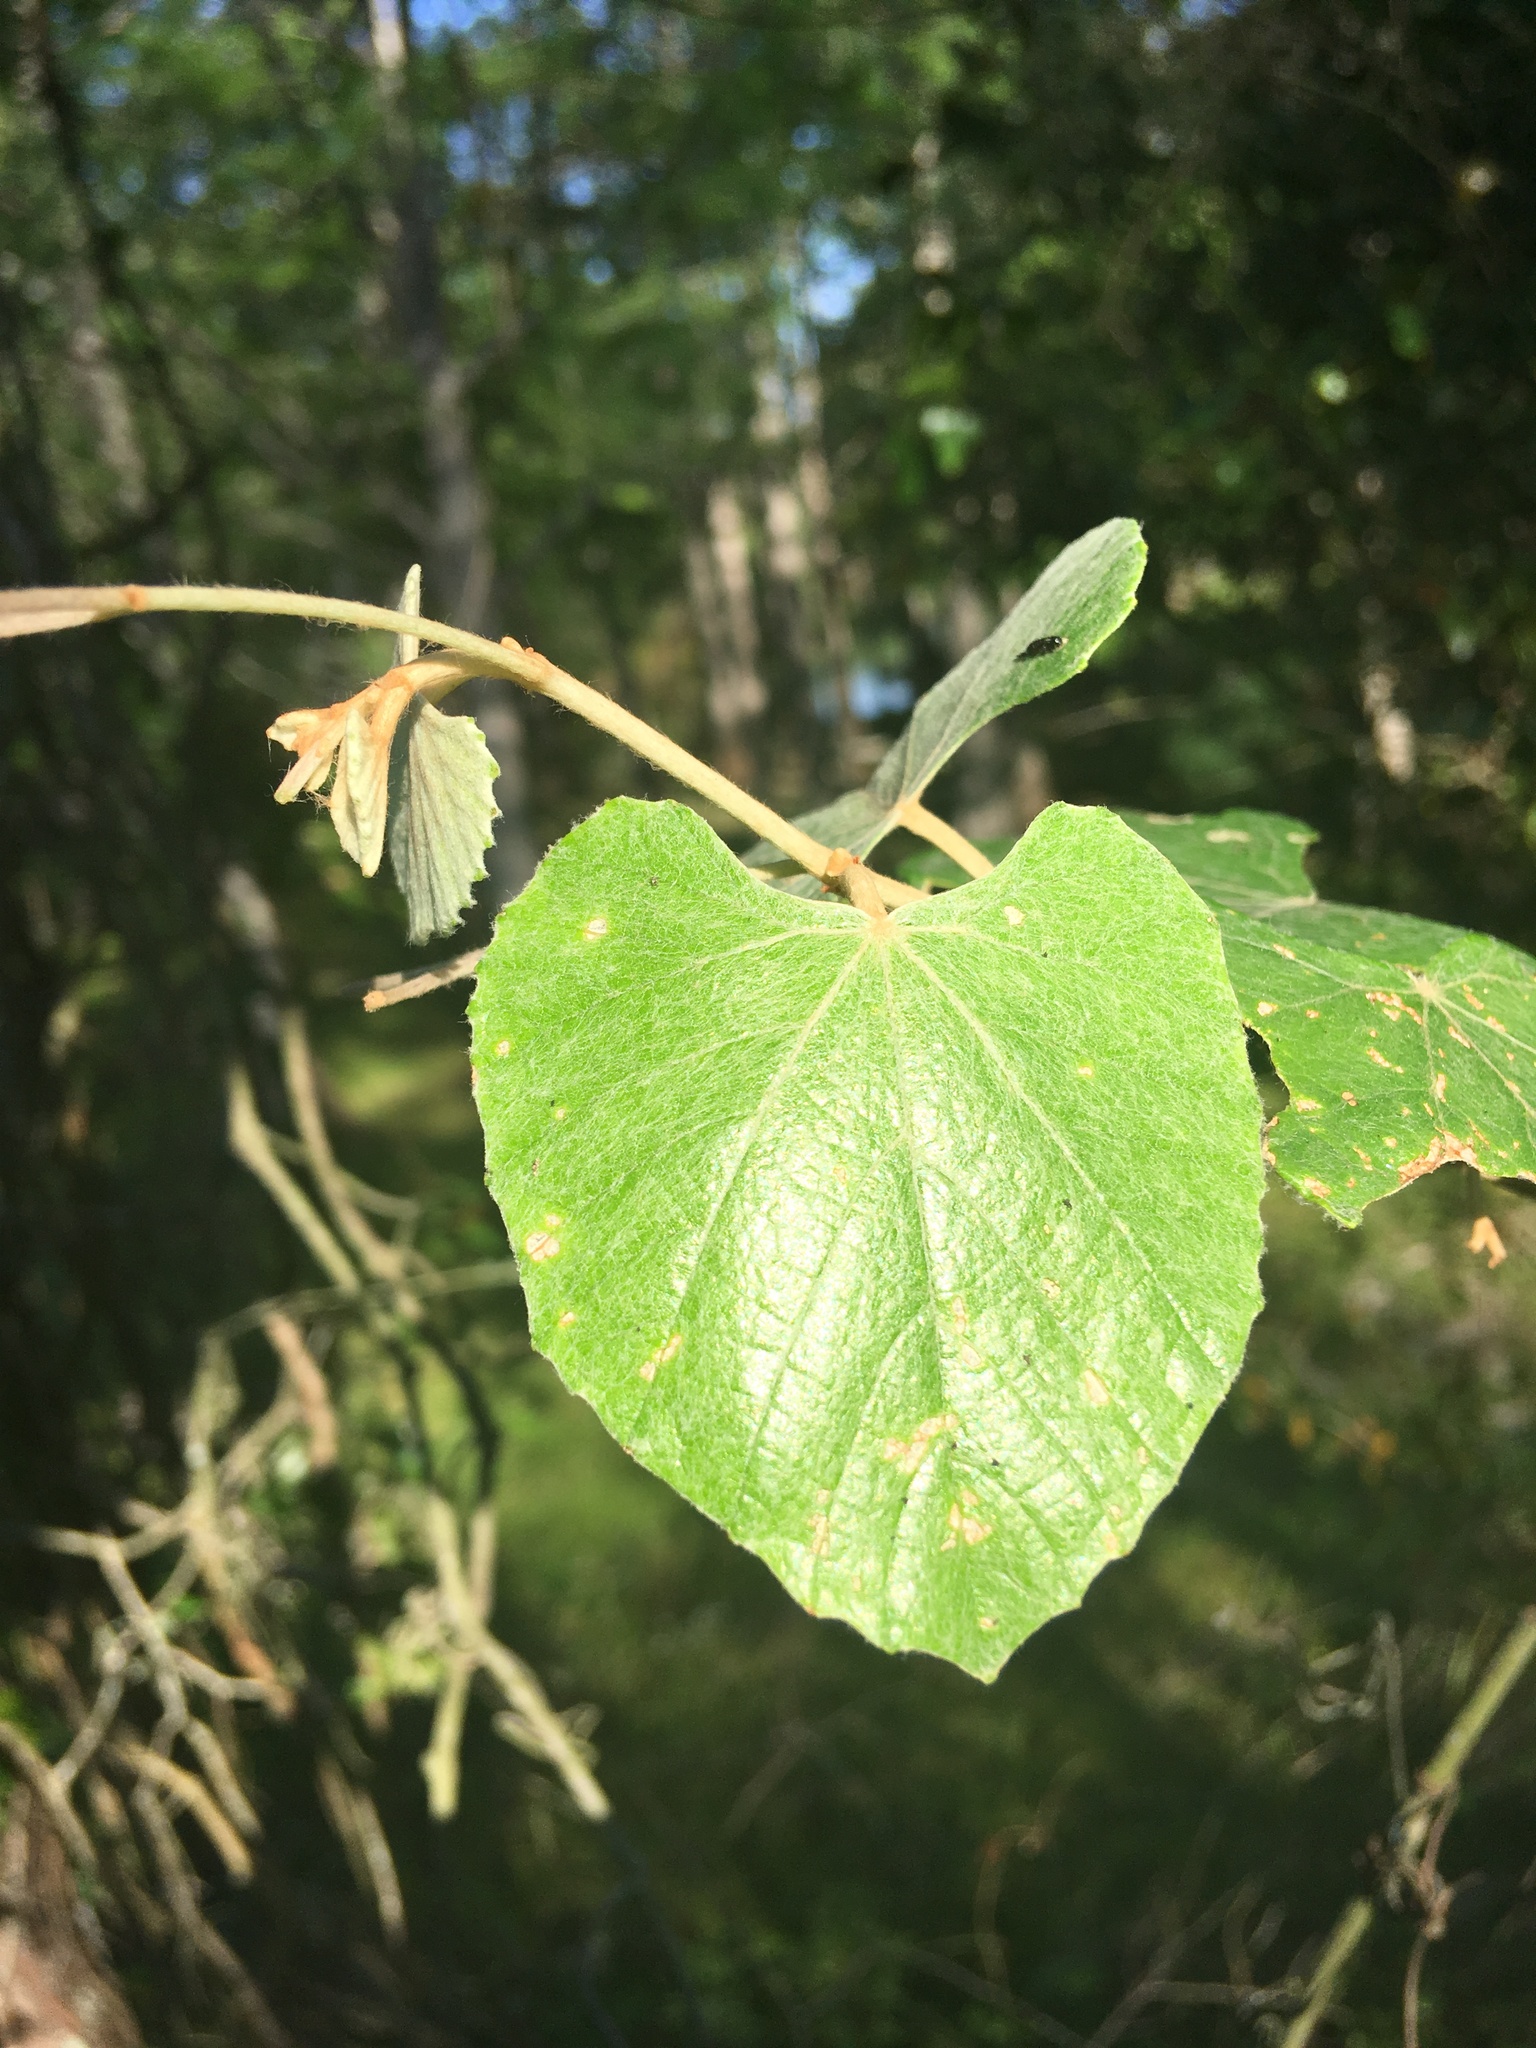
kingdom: Plantae
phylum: Tracheophyta
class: Magnoliopsida
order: Vitales
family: Vitaceae
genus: Vitis
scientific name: Vitis shuttleworthii
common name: Caloosa grape
